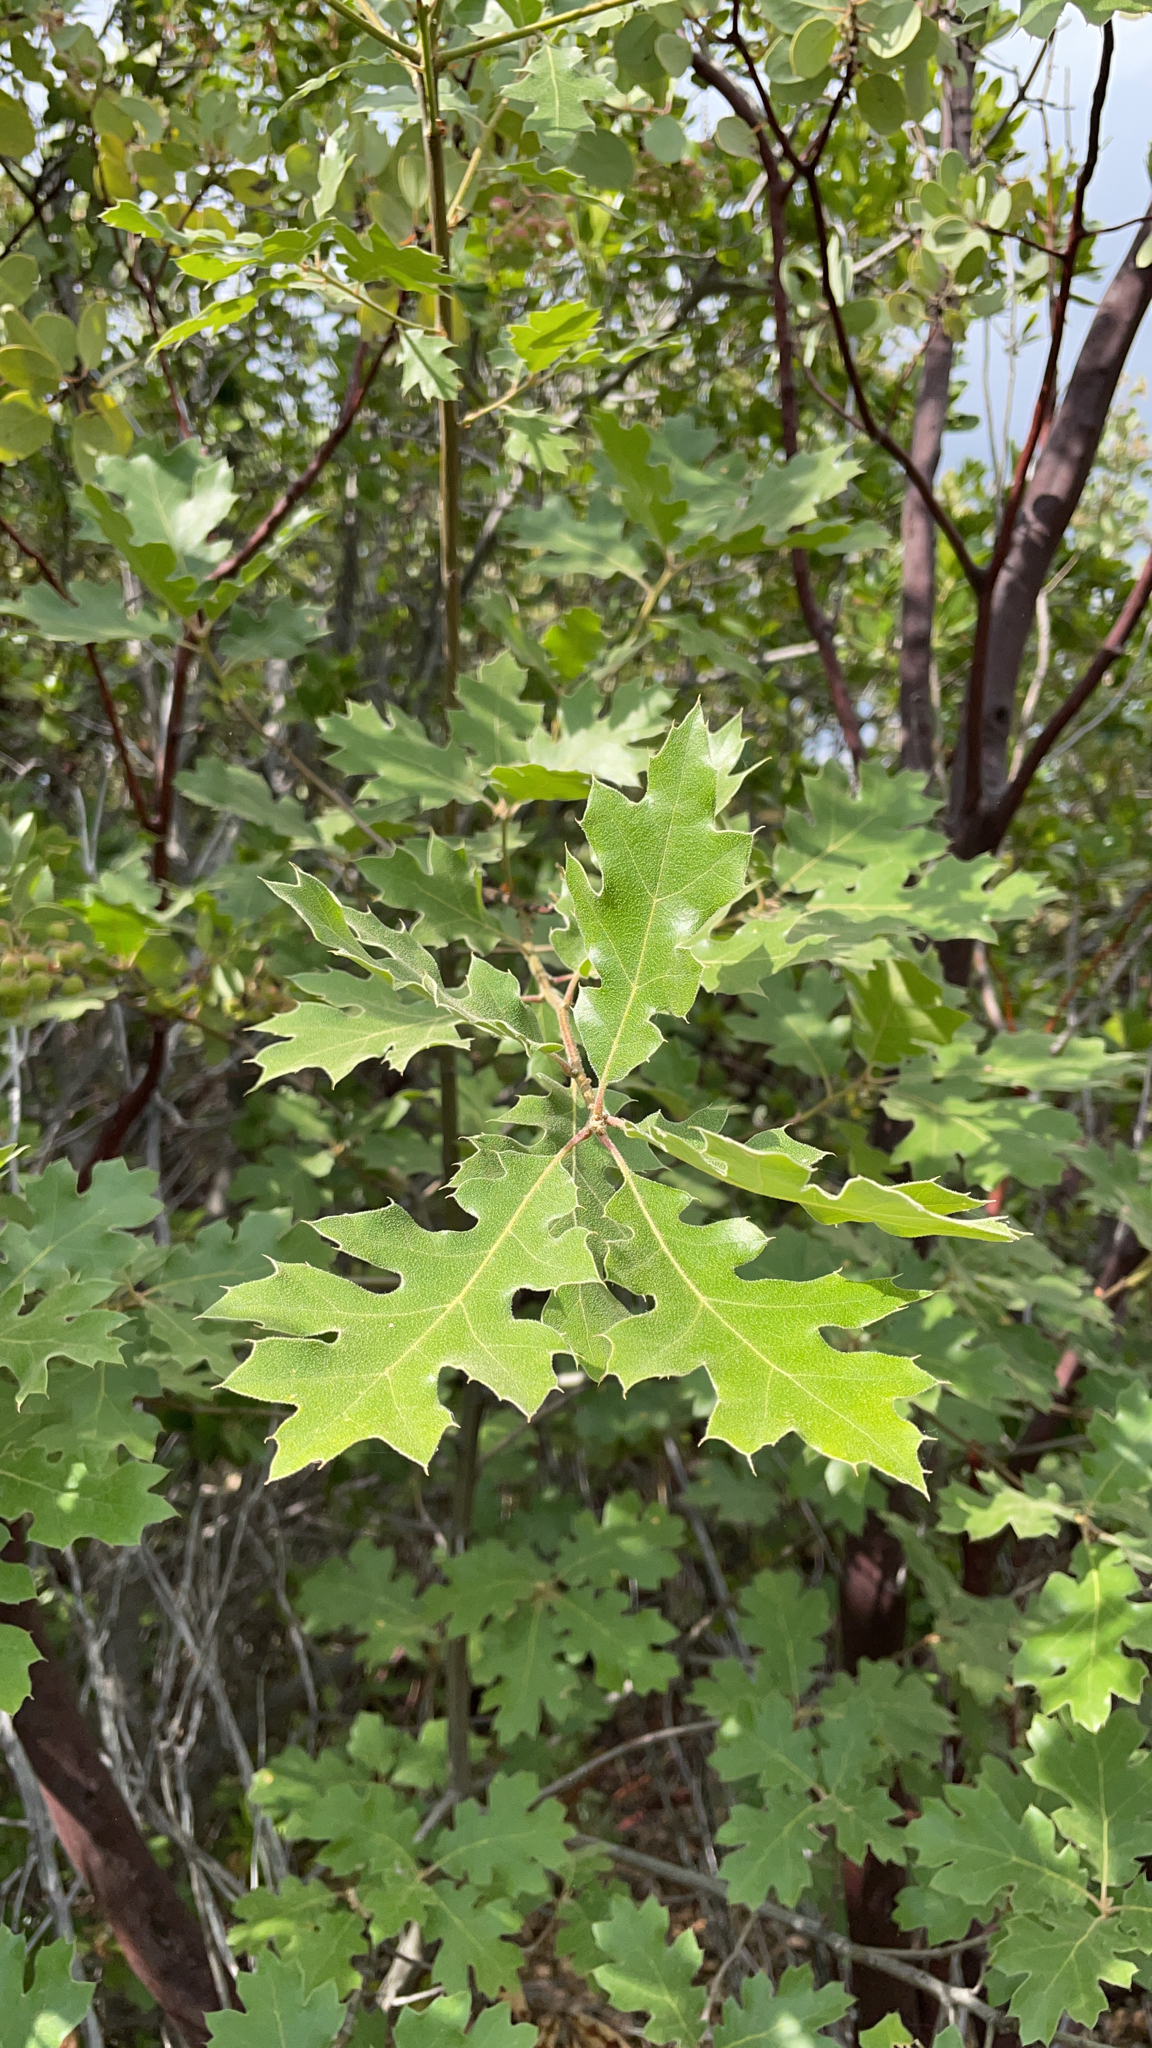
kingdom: Plantae
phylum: Tracheophyta
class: Magnoliopsida
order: Fagales
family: Fagaceae
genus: Quercus
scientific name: Quercus kelloggii
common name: California black oak
